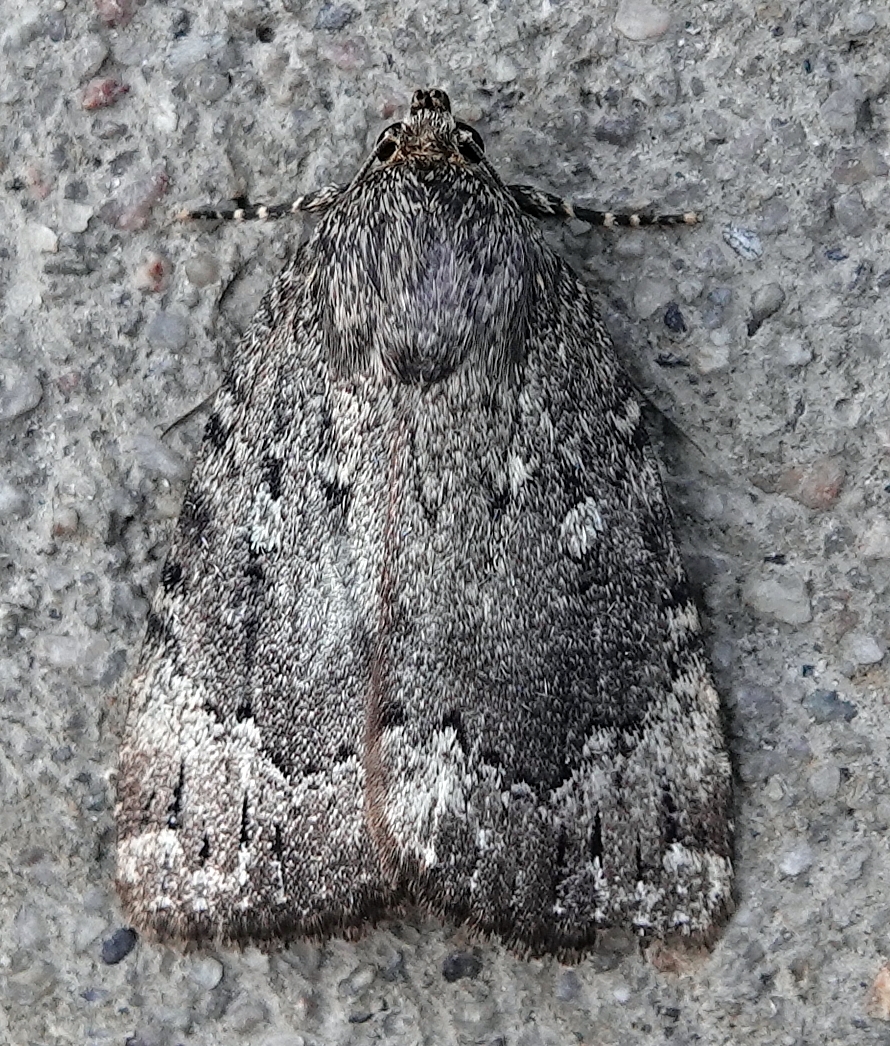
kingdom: Animalia
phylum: Arthropoda
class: Insecta
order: Lepidoptera
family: Noctuidae
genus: Amphipyra
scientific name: Amphipyra pyramidoides
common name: American copper underwing
